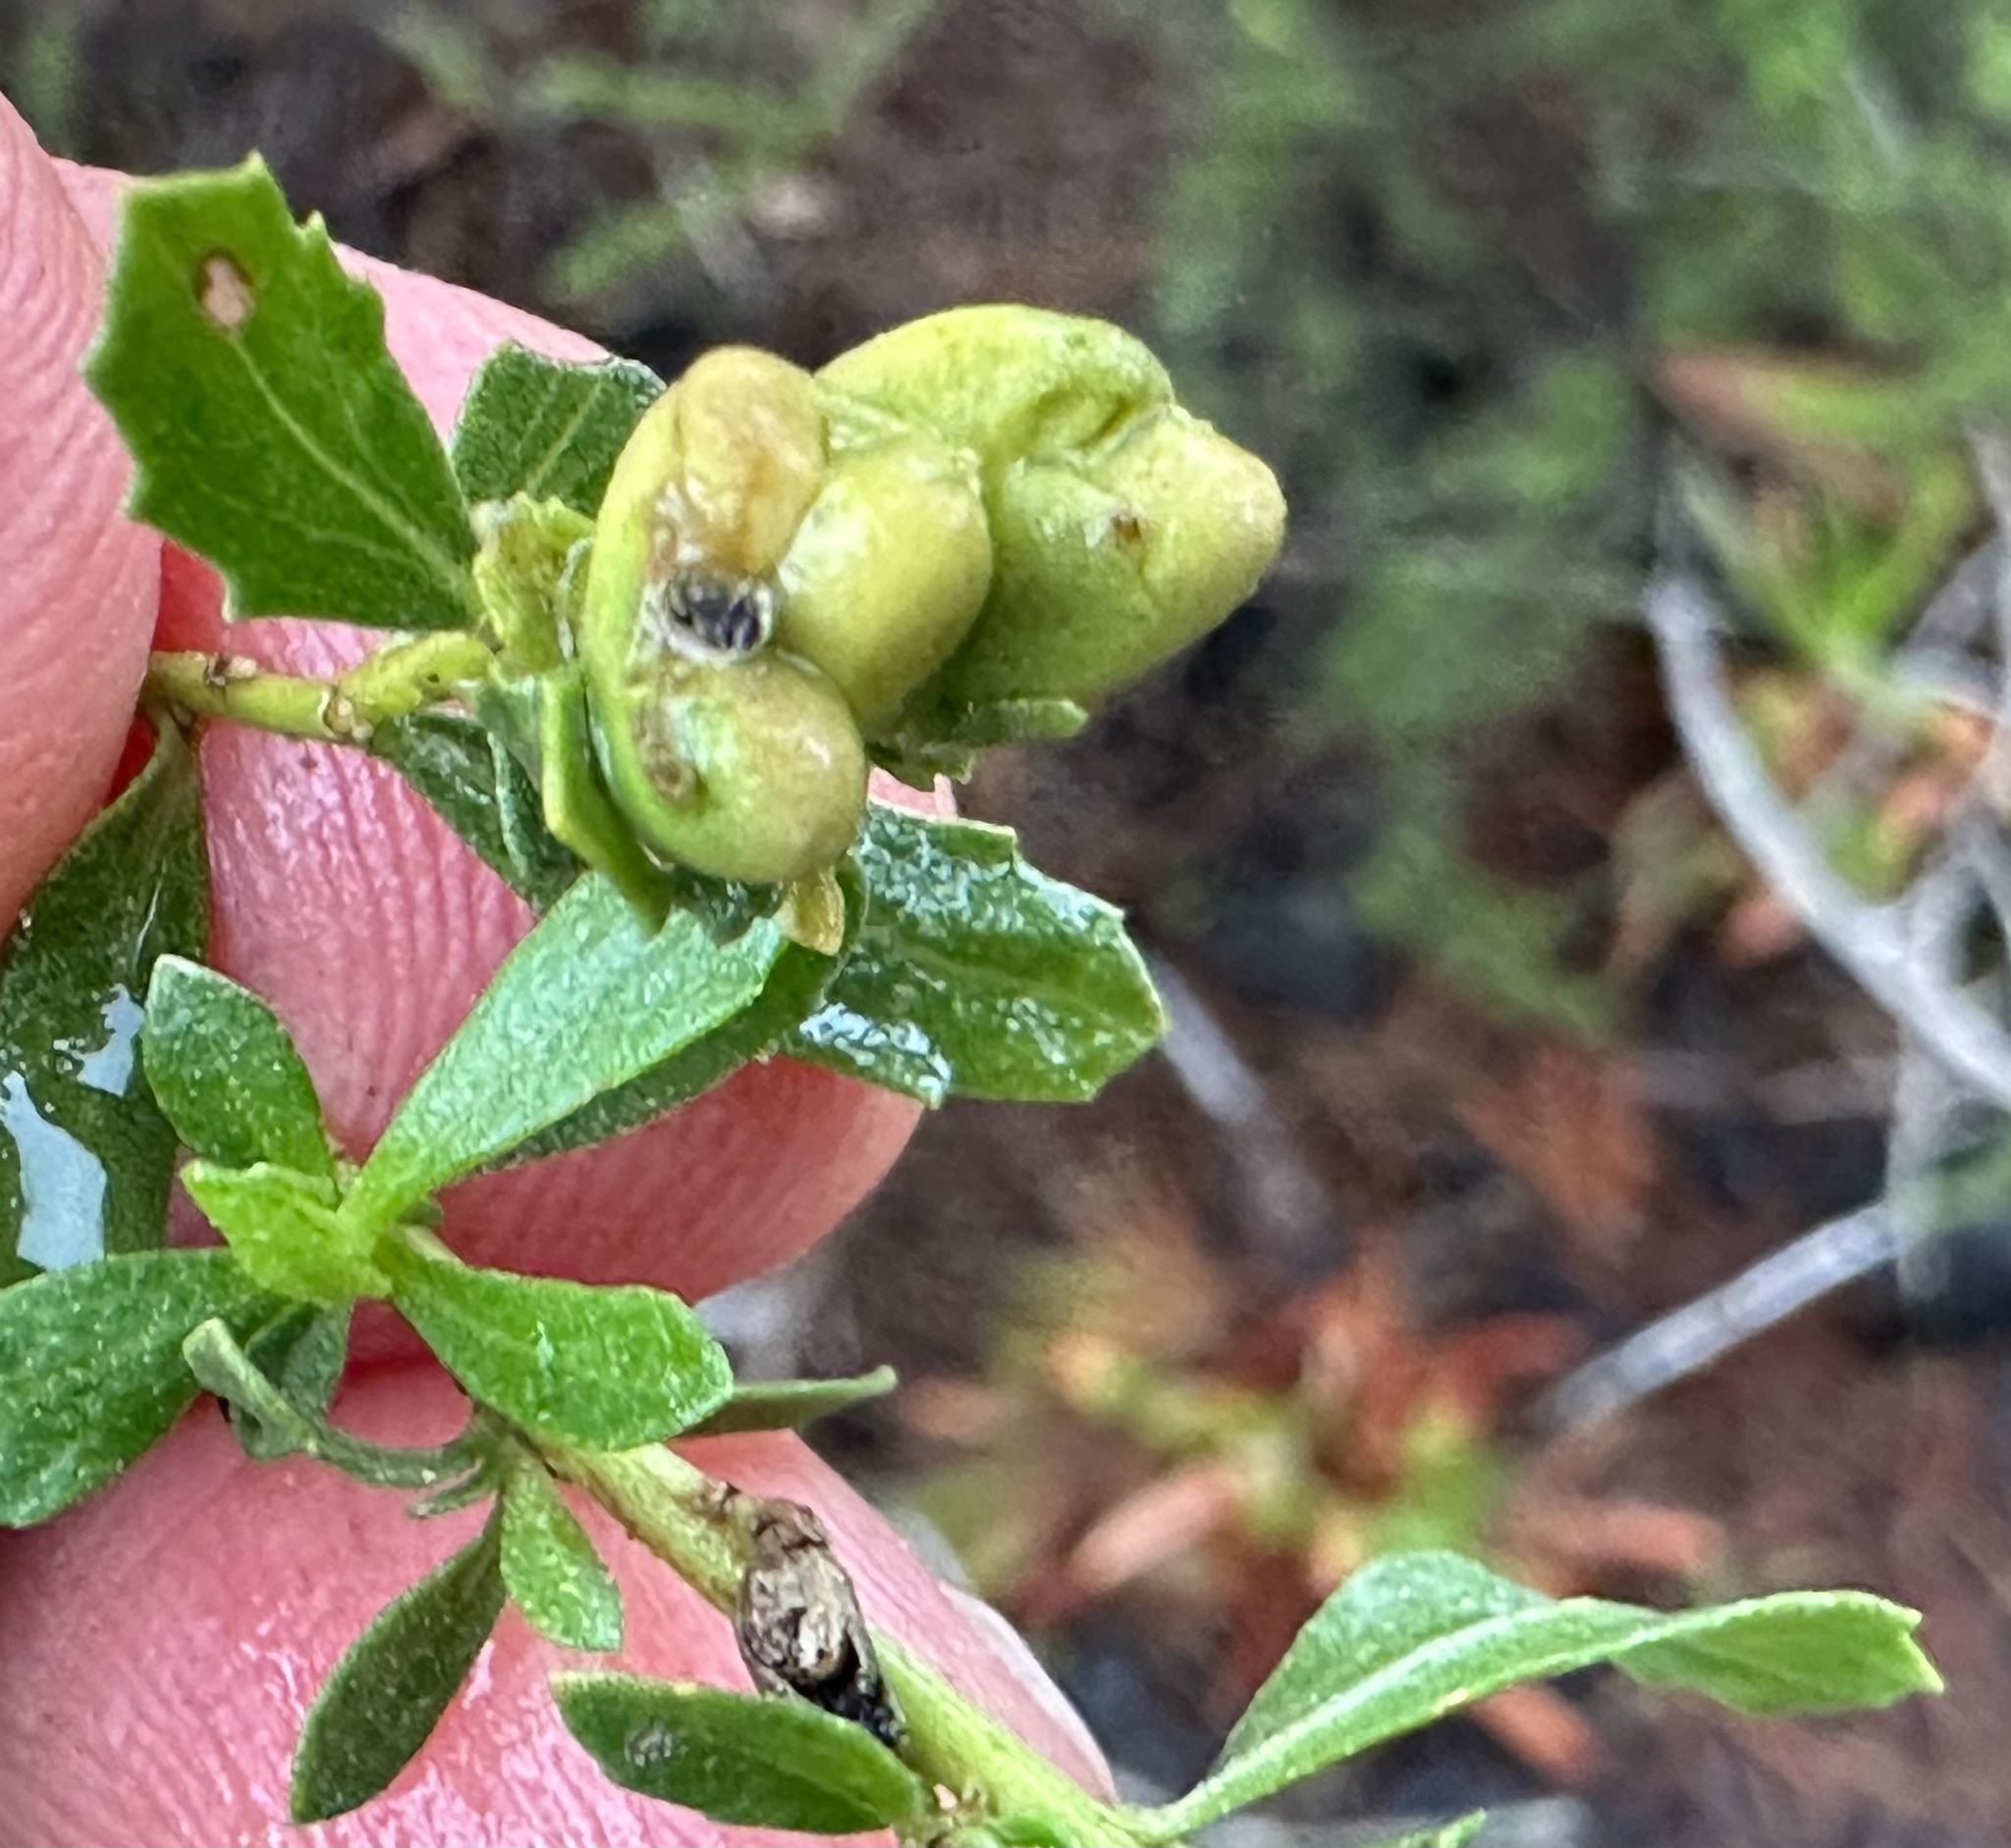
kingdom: Animalia
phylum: Arthropoda
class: Insecta
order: Diptera
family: Cecidomyiidae
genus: Rhopalomyia
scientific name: Rhopalomyia californica
